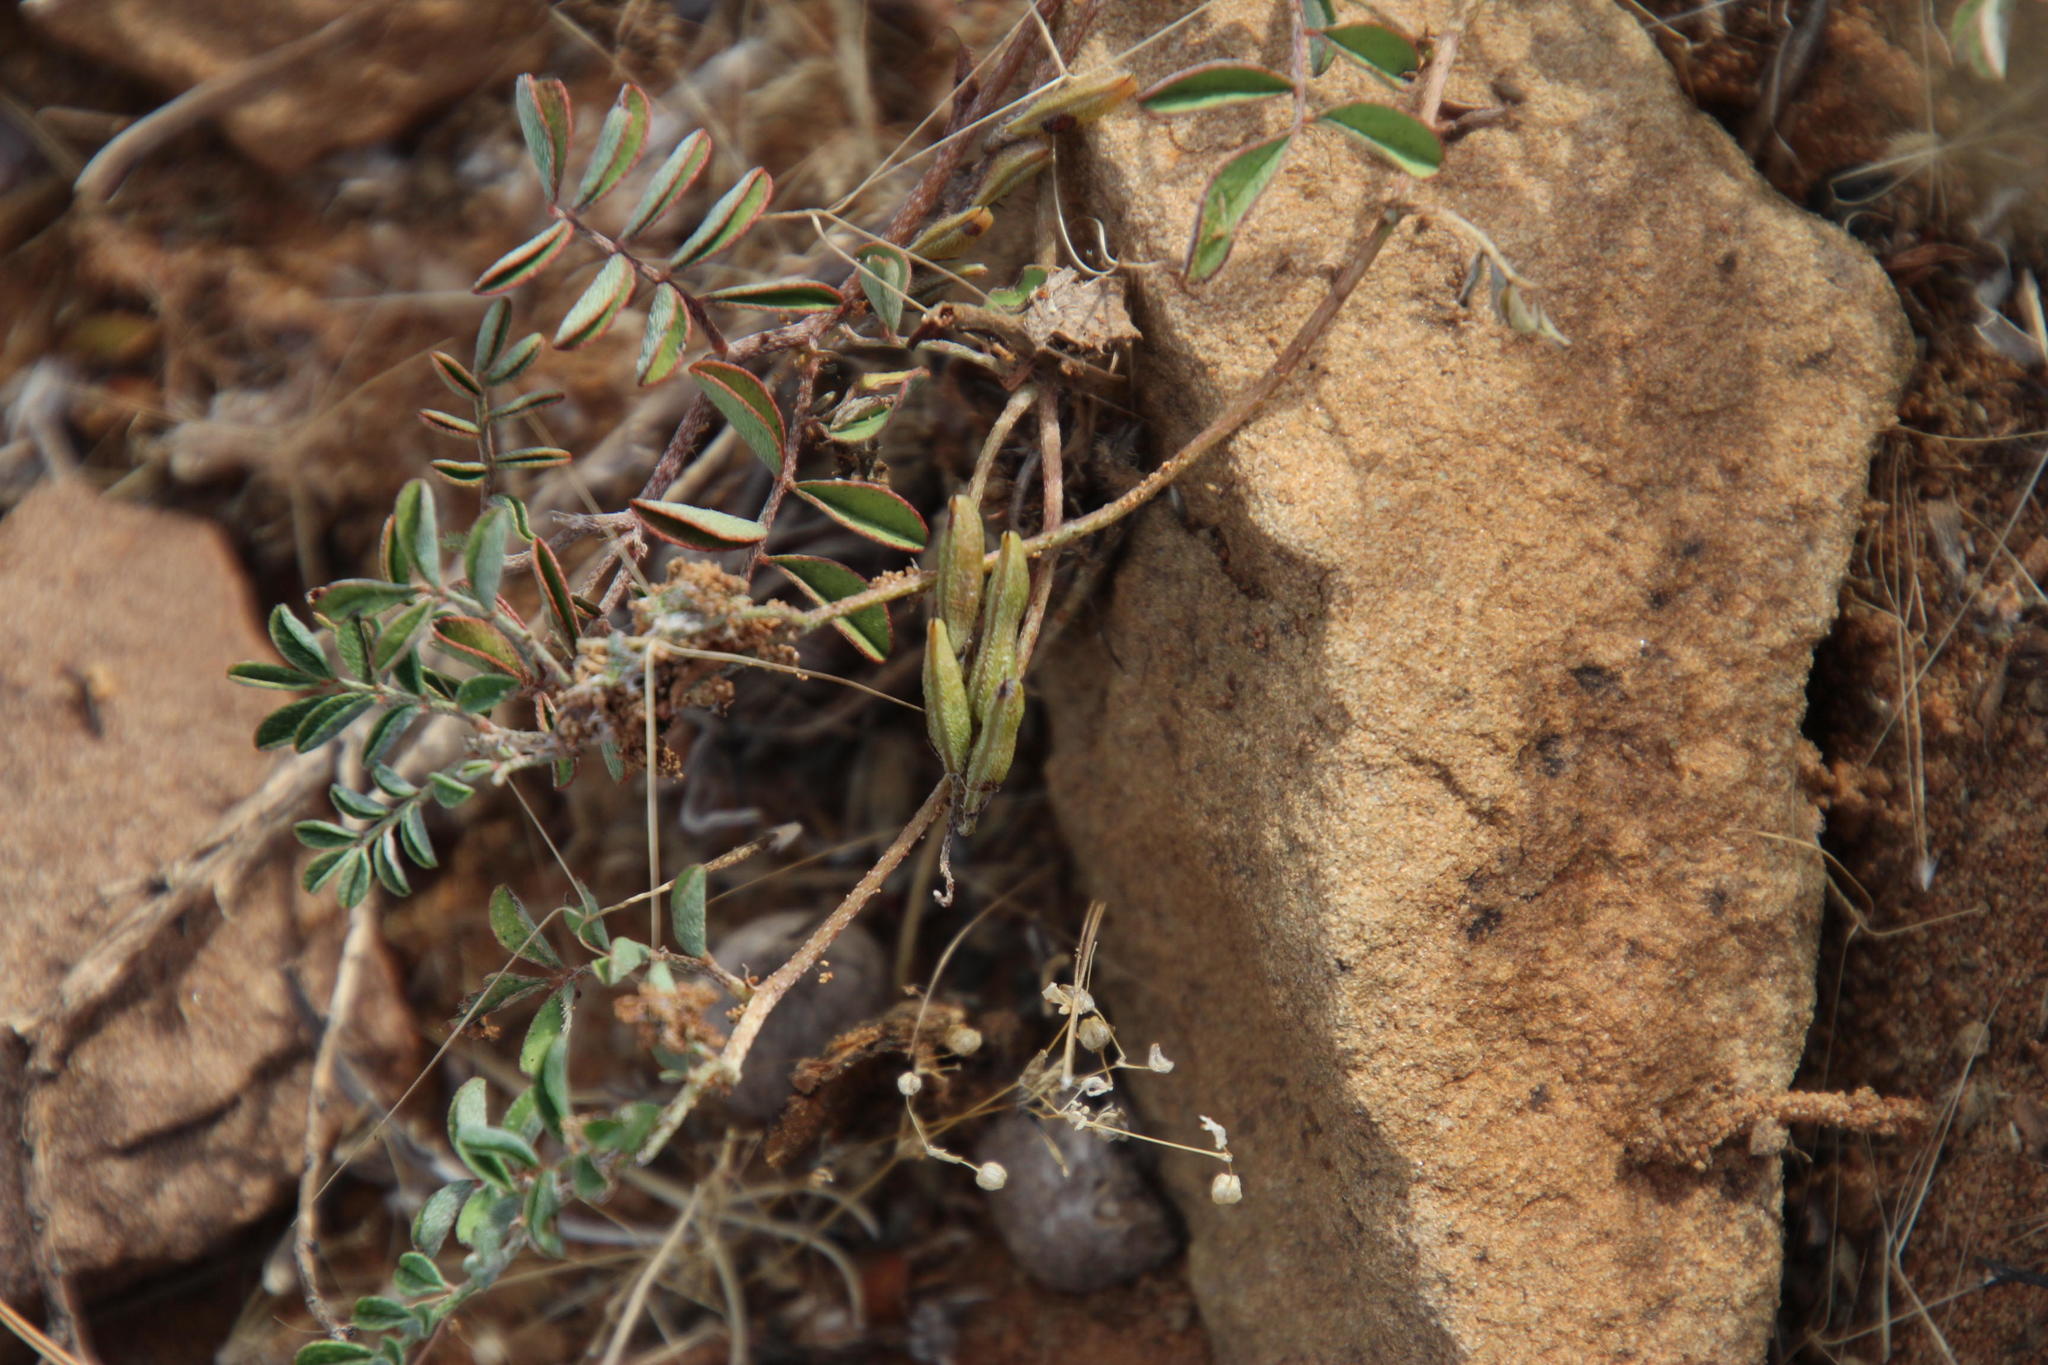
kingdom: Plantae
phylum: Tracheophyta
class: Magnoliopsida
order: Fabales
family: Fabaceae
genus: Indigofera
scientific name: Indigofera alternans
